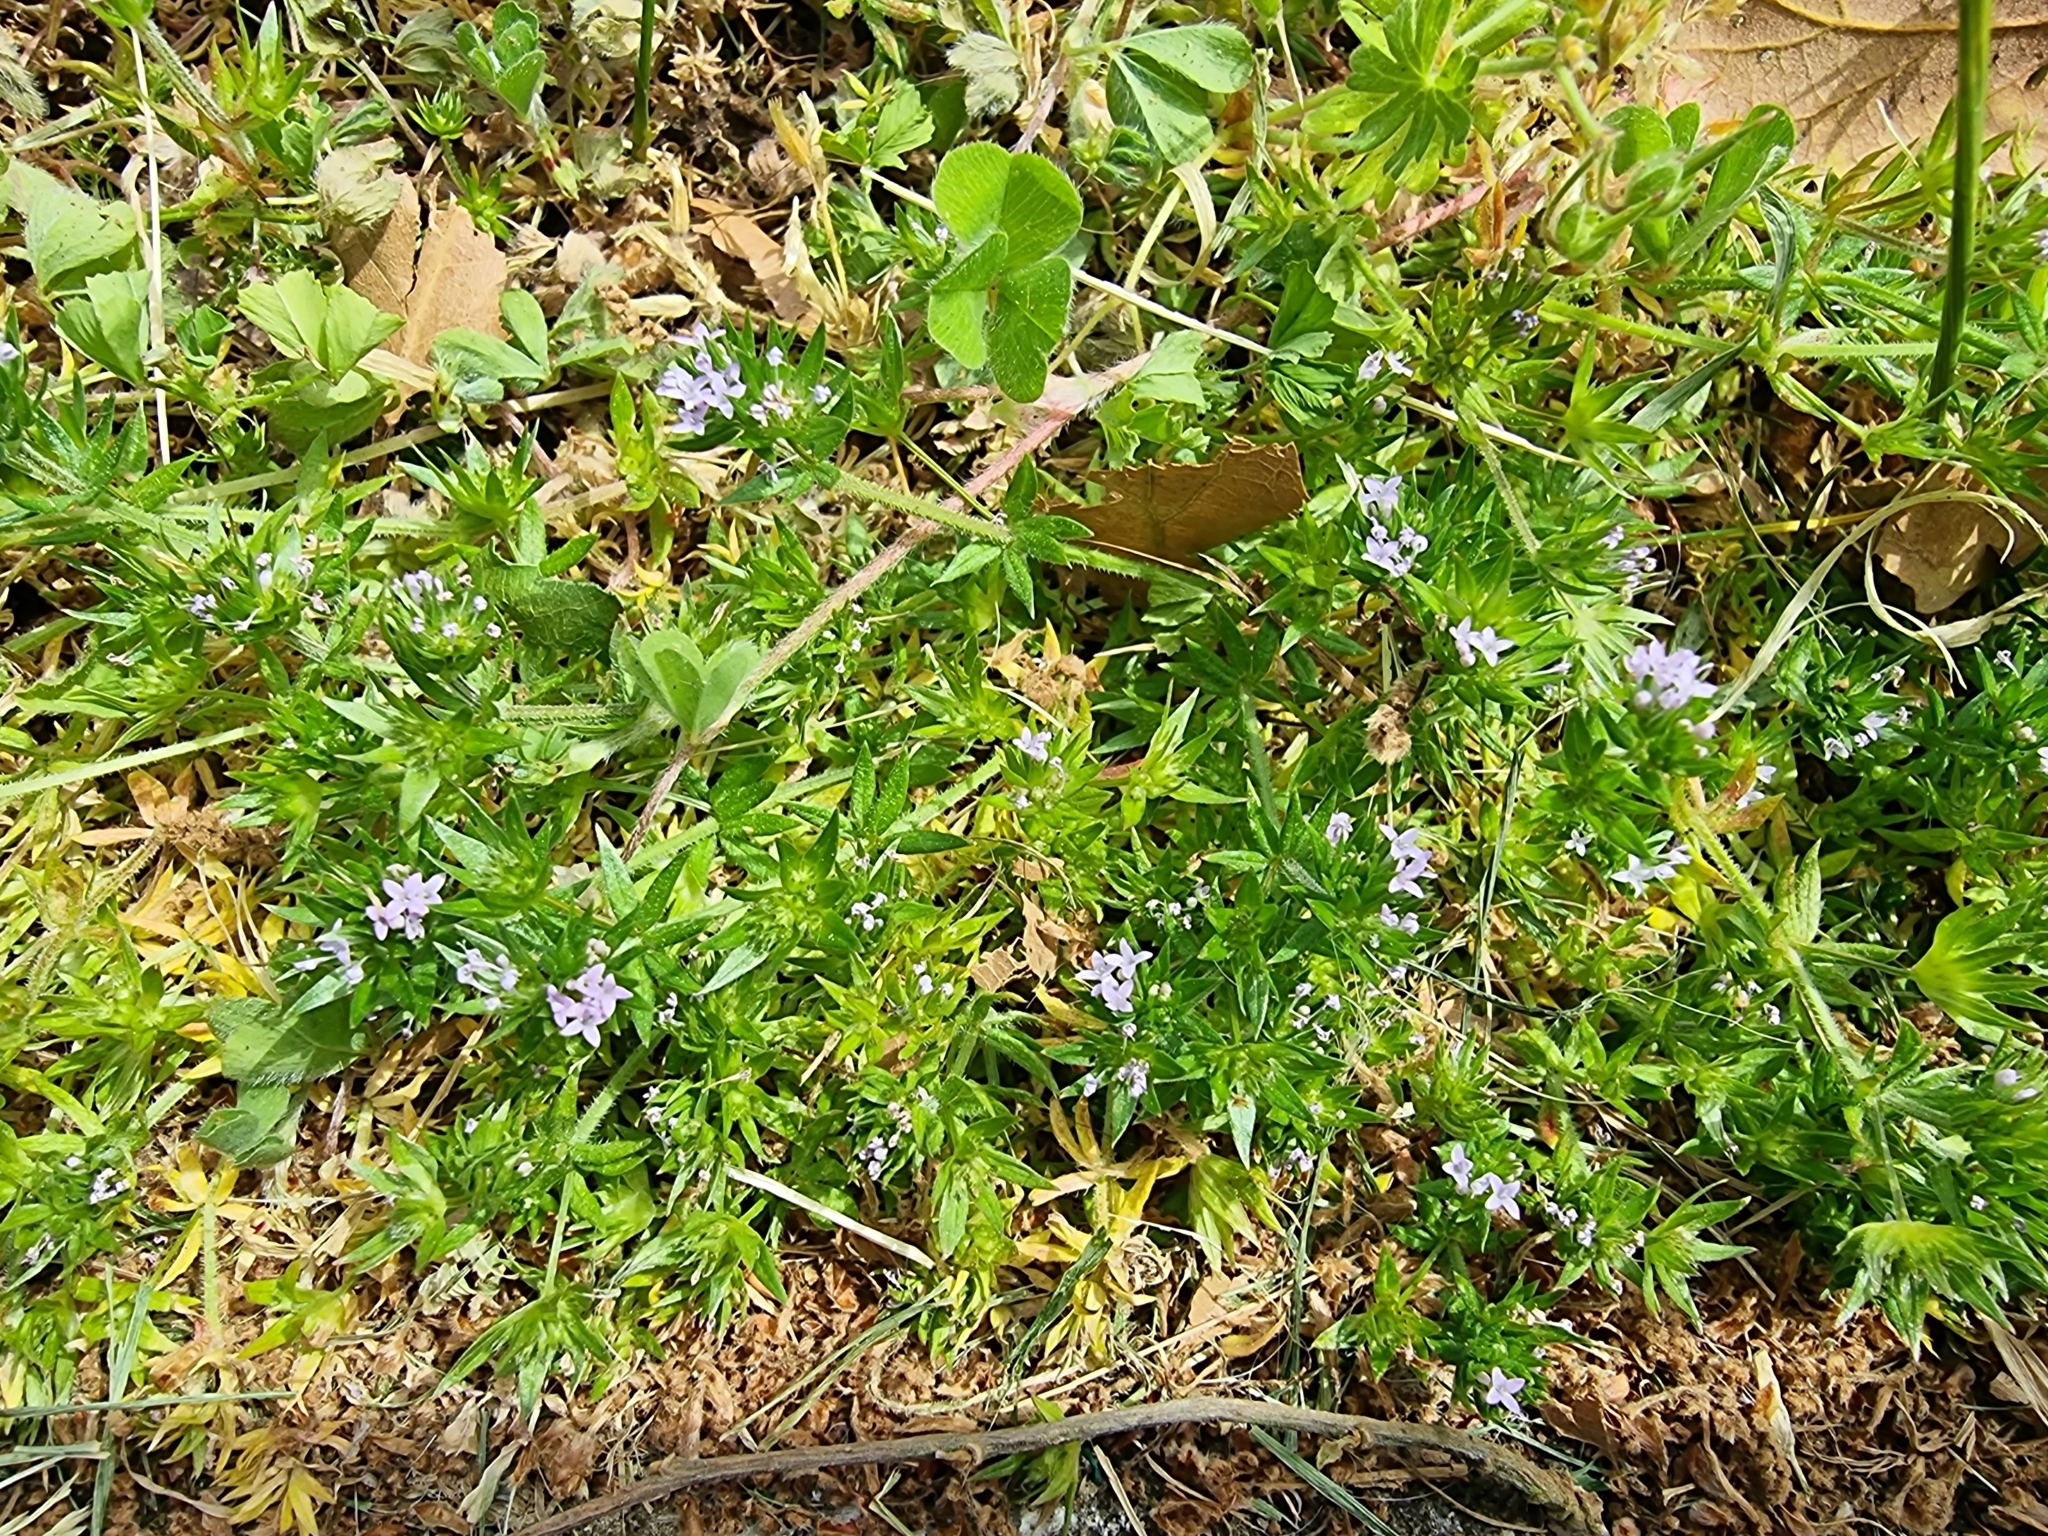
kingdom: Plantae
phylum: Tracheophyta
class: Magnoliopsida
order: Gentianales
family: Rubiaceae
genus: Sherardia
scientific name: Sherardia arvensis
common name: Field madder
